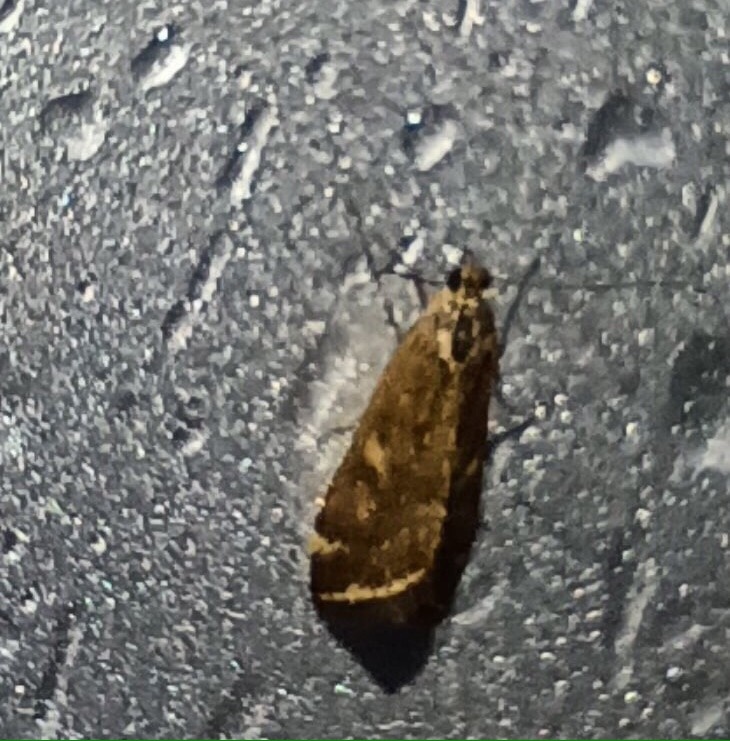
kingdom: Animalia
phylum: Arthropoda
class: Insecta
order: Lepidoptera
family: Crambidae
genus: Loxostege
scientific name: Loxostege sticticalis
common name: Crambid moth
